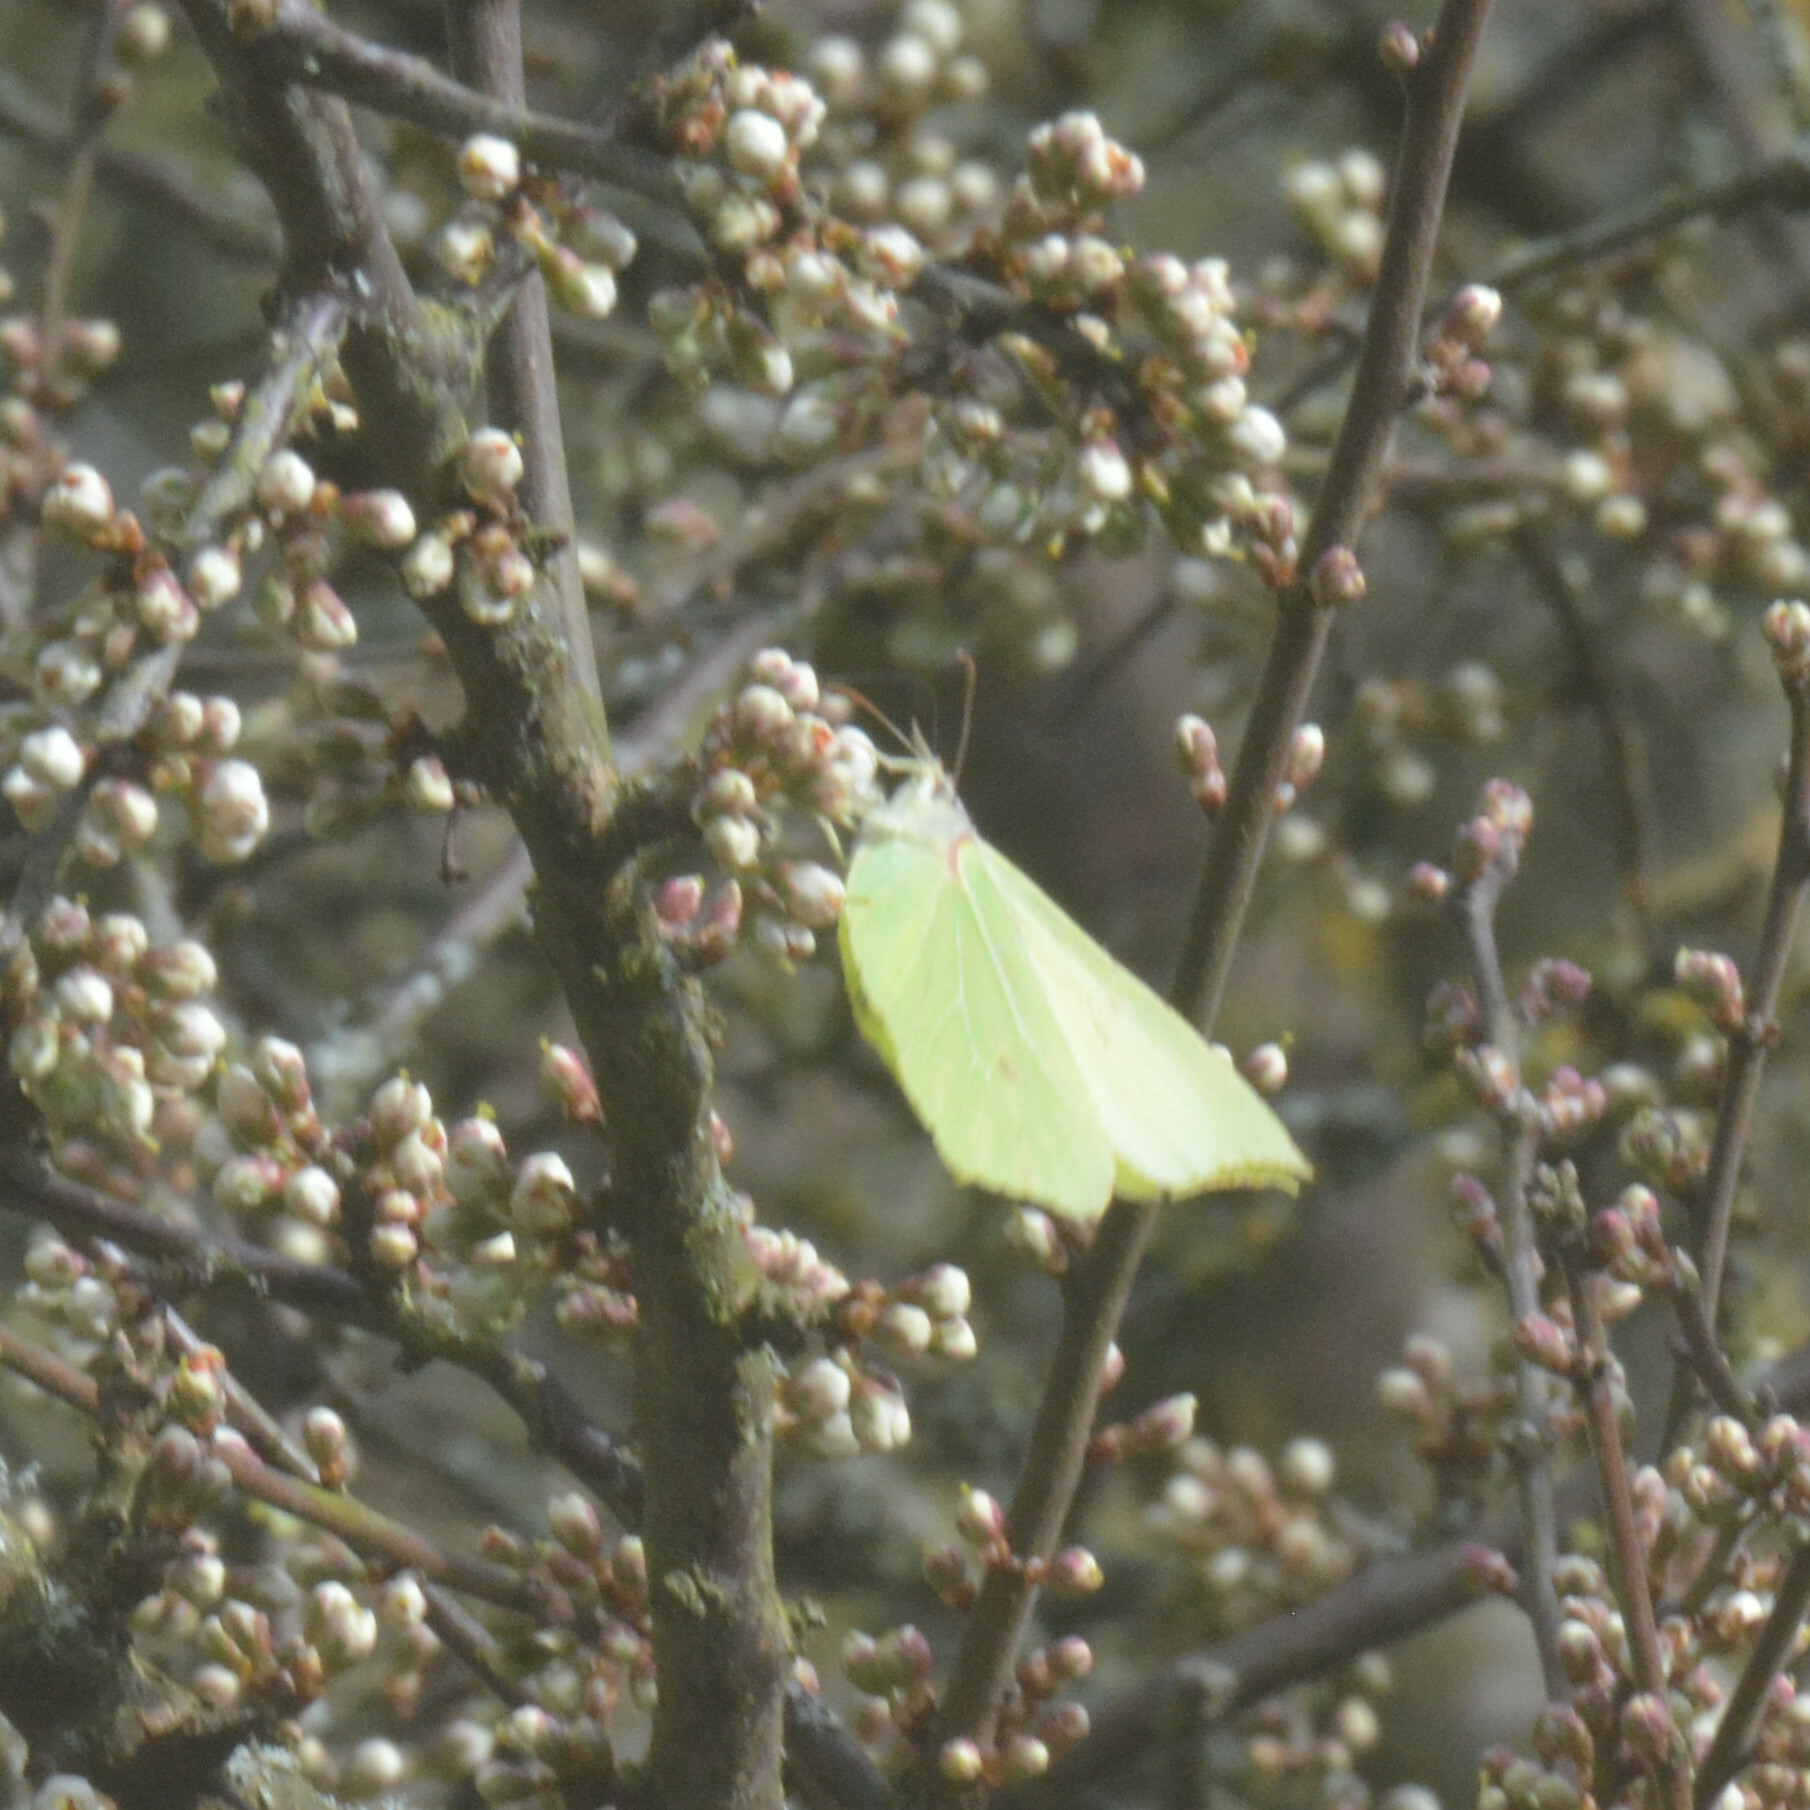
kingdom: Animalia
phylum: Arthropoda
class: Insecta
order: Lepidoptera
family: Pieridae
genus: Gonepteryx
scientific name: Gonepteryx rhamni
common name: Brimstone
